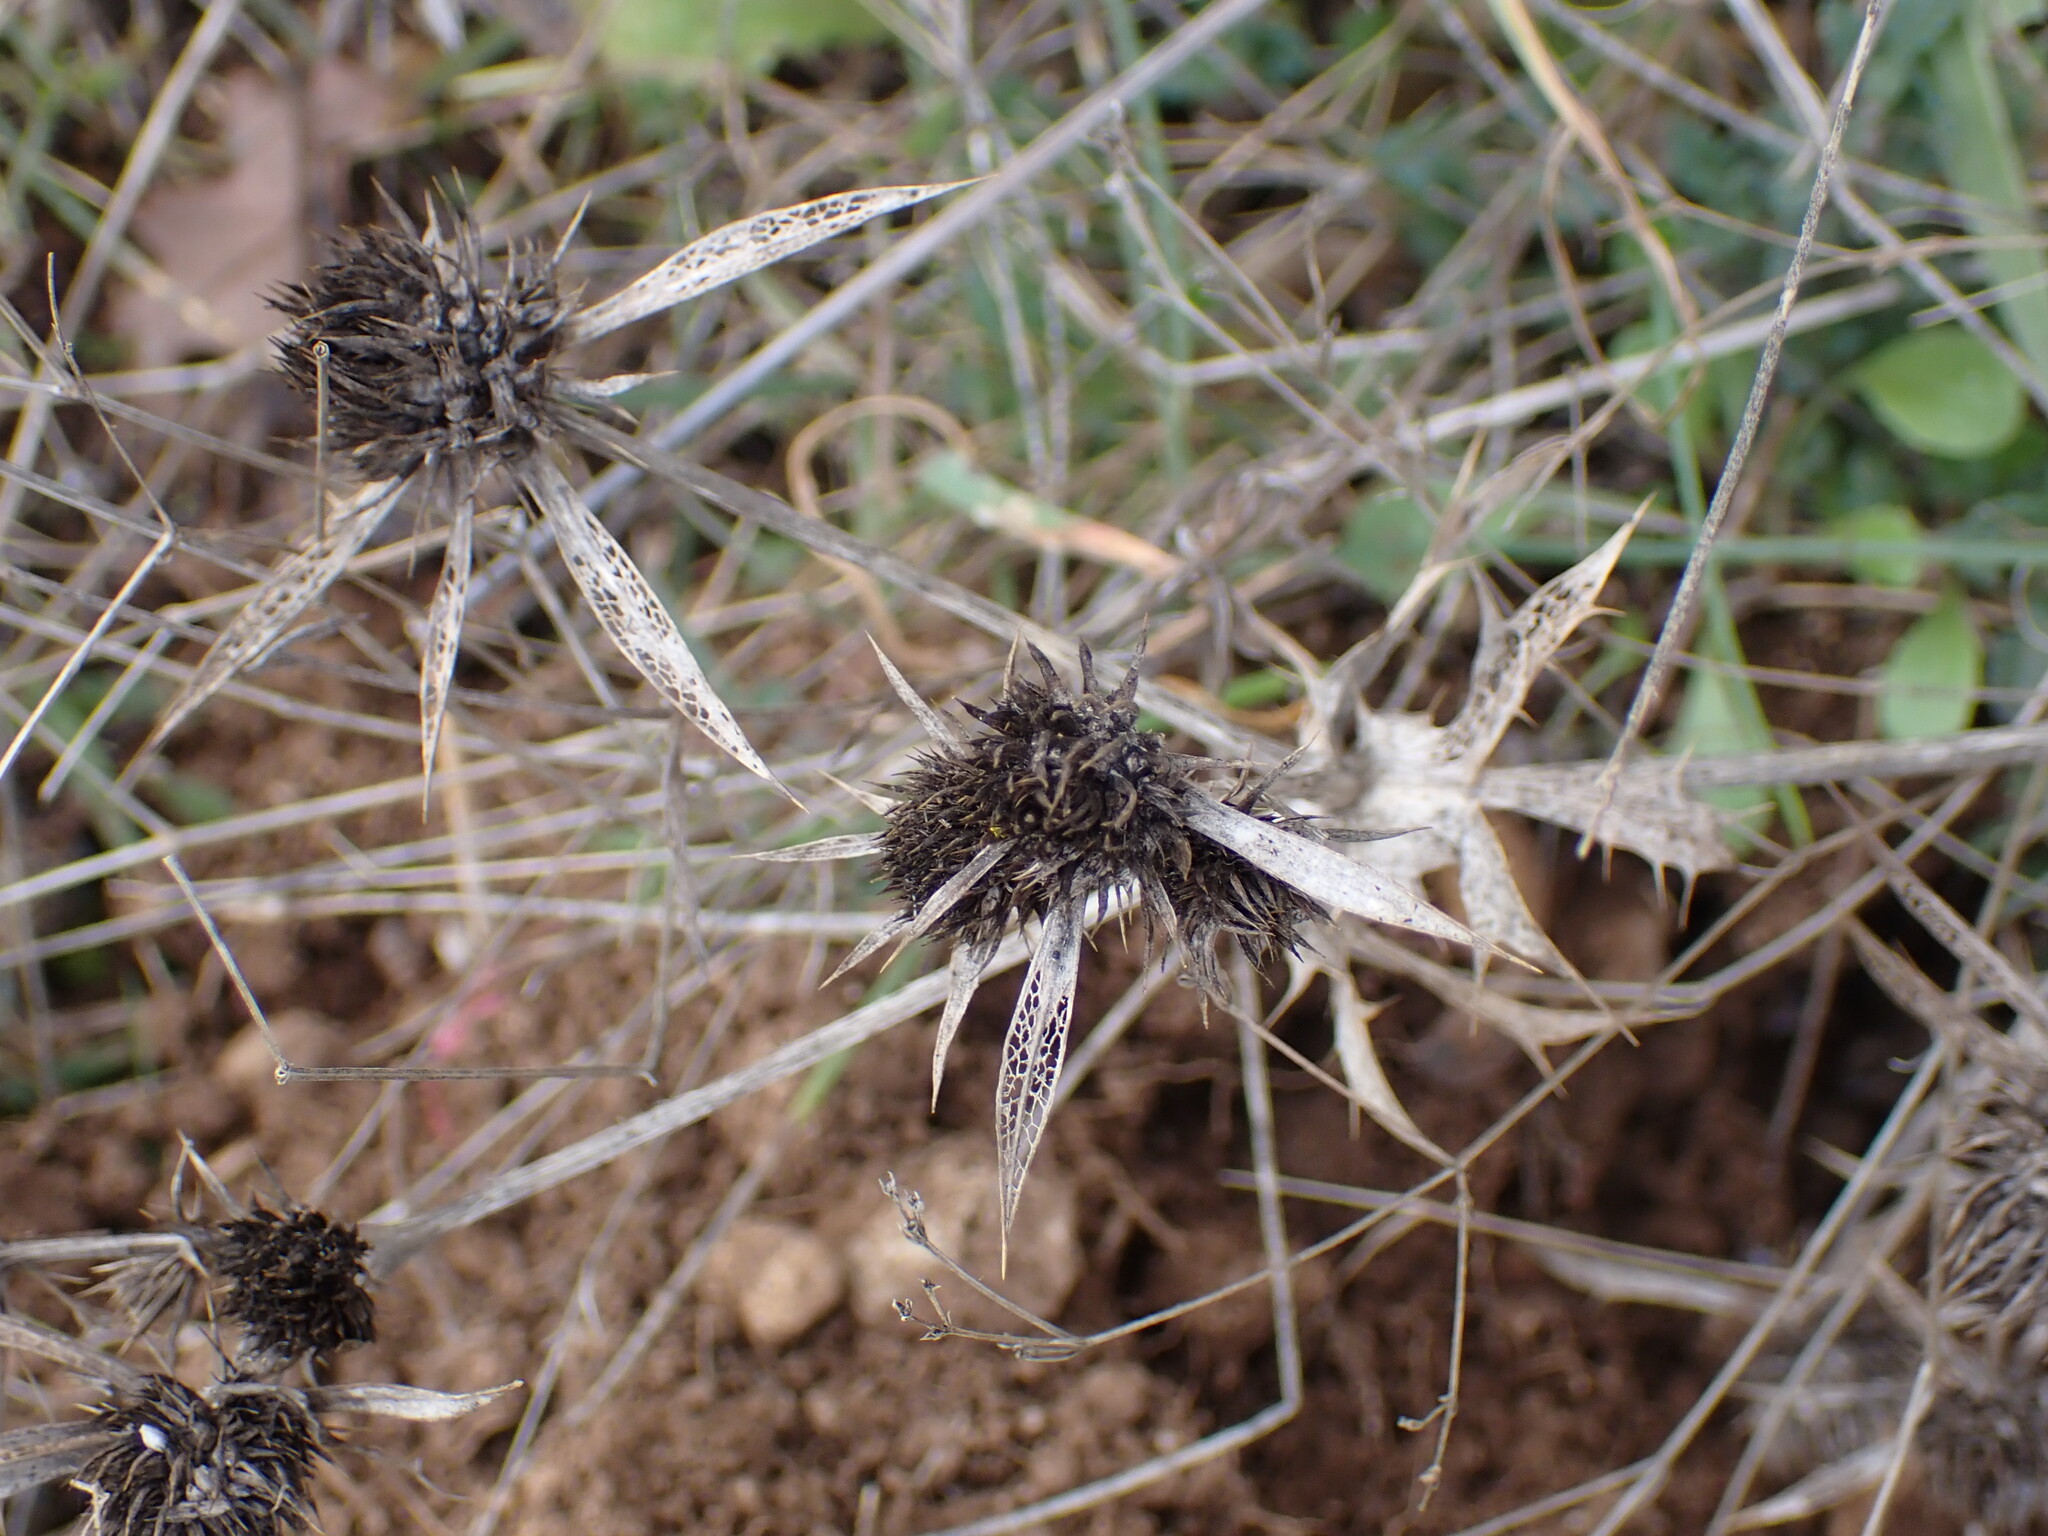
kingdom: Plantae
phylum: Tracheophyta
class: Magnoliopsida
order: Apiales
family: Apiaceae
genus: Eryngium
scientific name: Eryngium campestre
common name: Field eryngo
